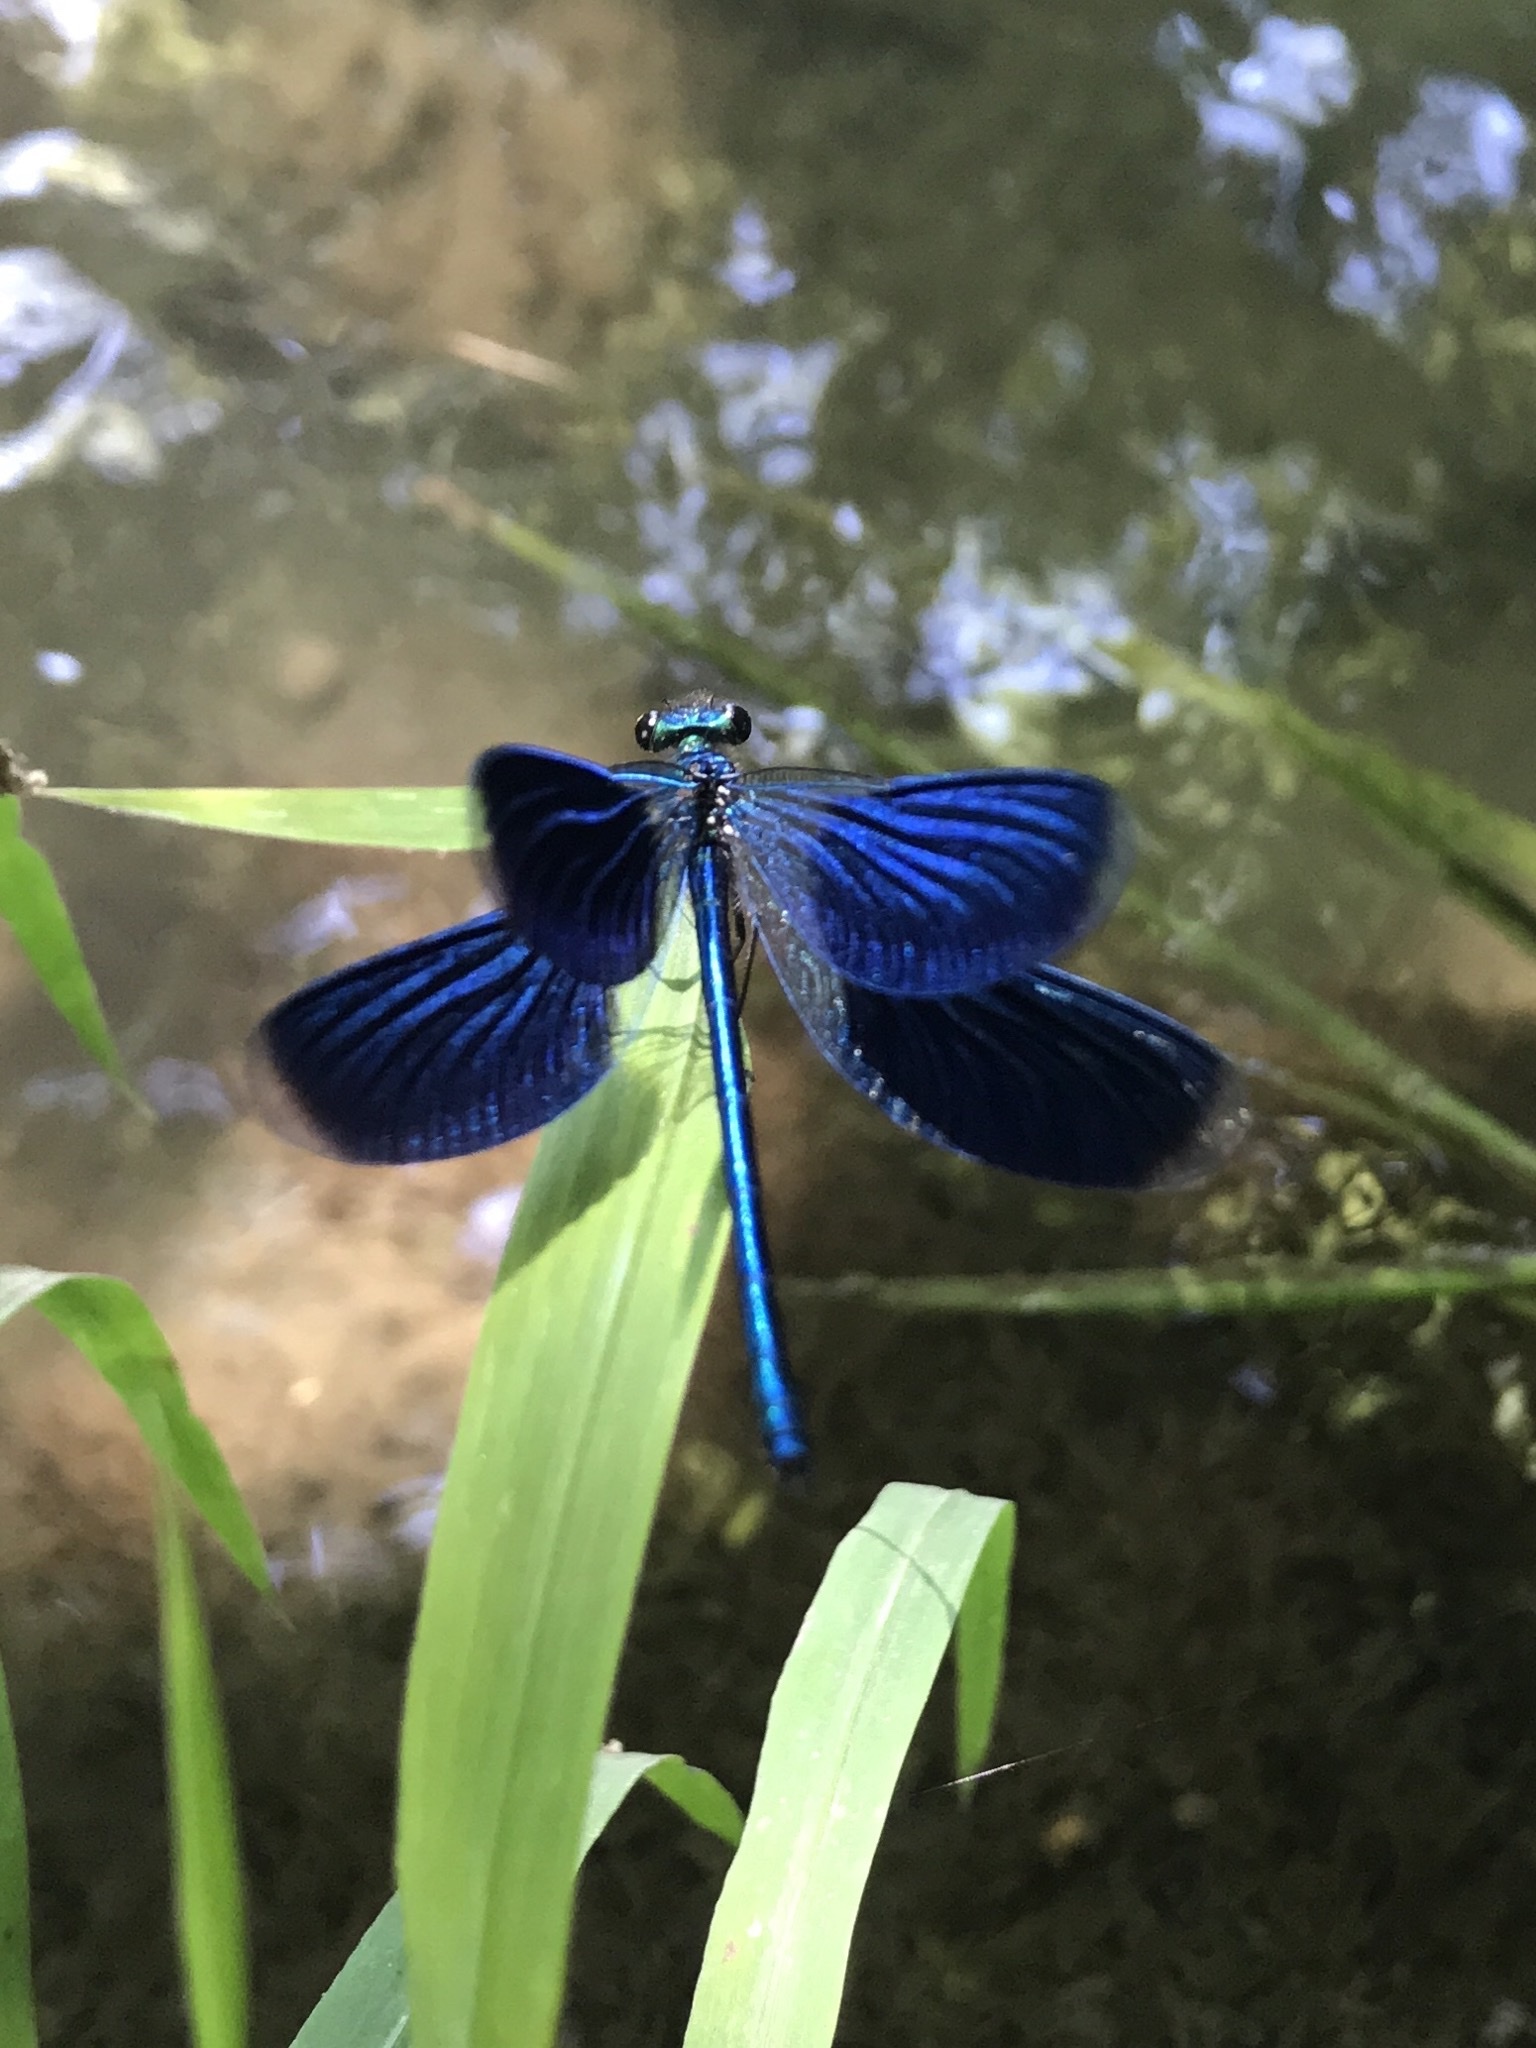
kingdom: Animalia
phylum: Arthropoda
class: Insecta
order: Odonata
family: Calopterygidae
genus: Calopteryx
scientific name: Calopteryx splendens
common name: Banded demoiselle
